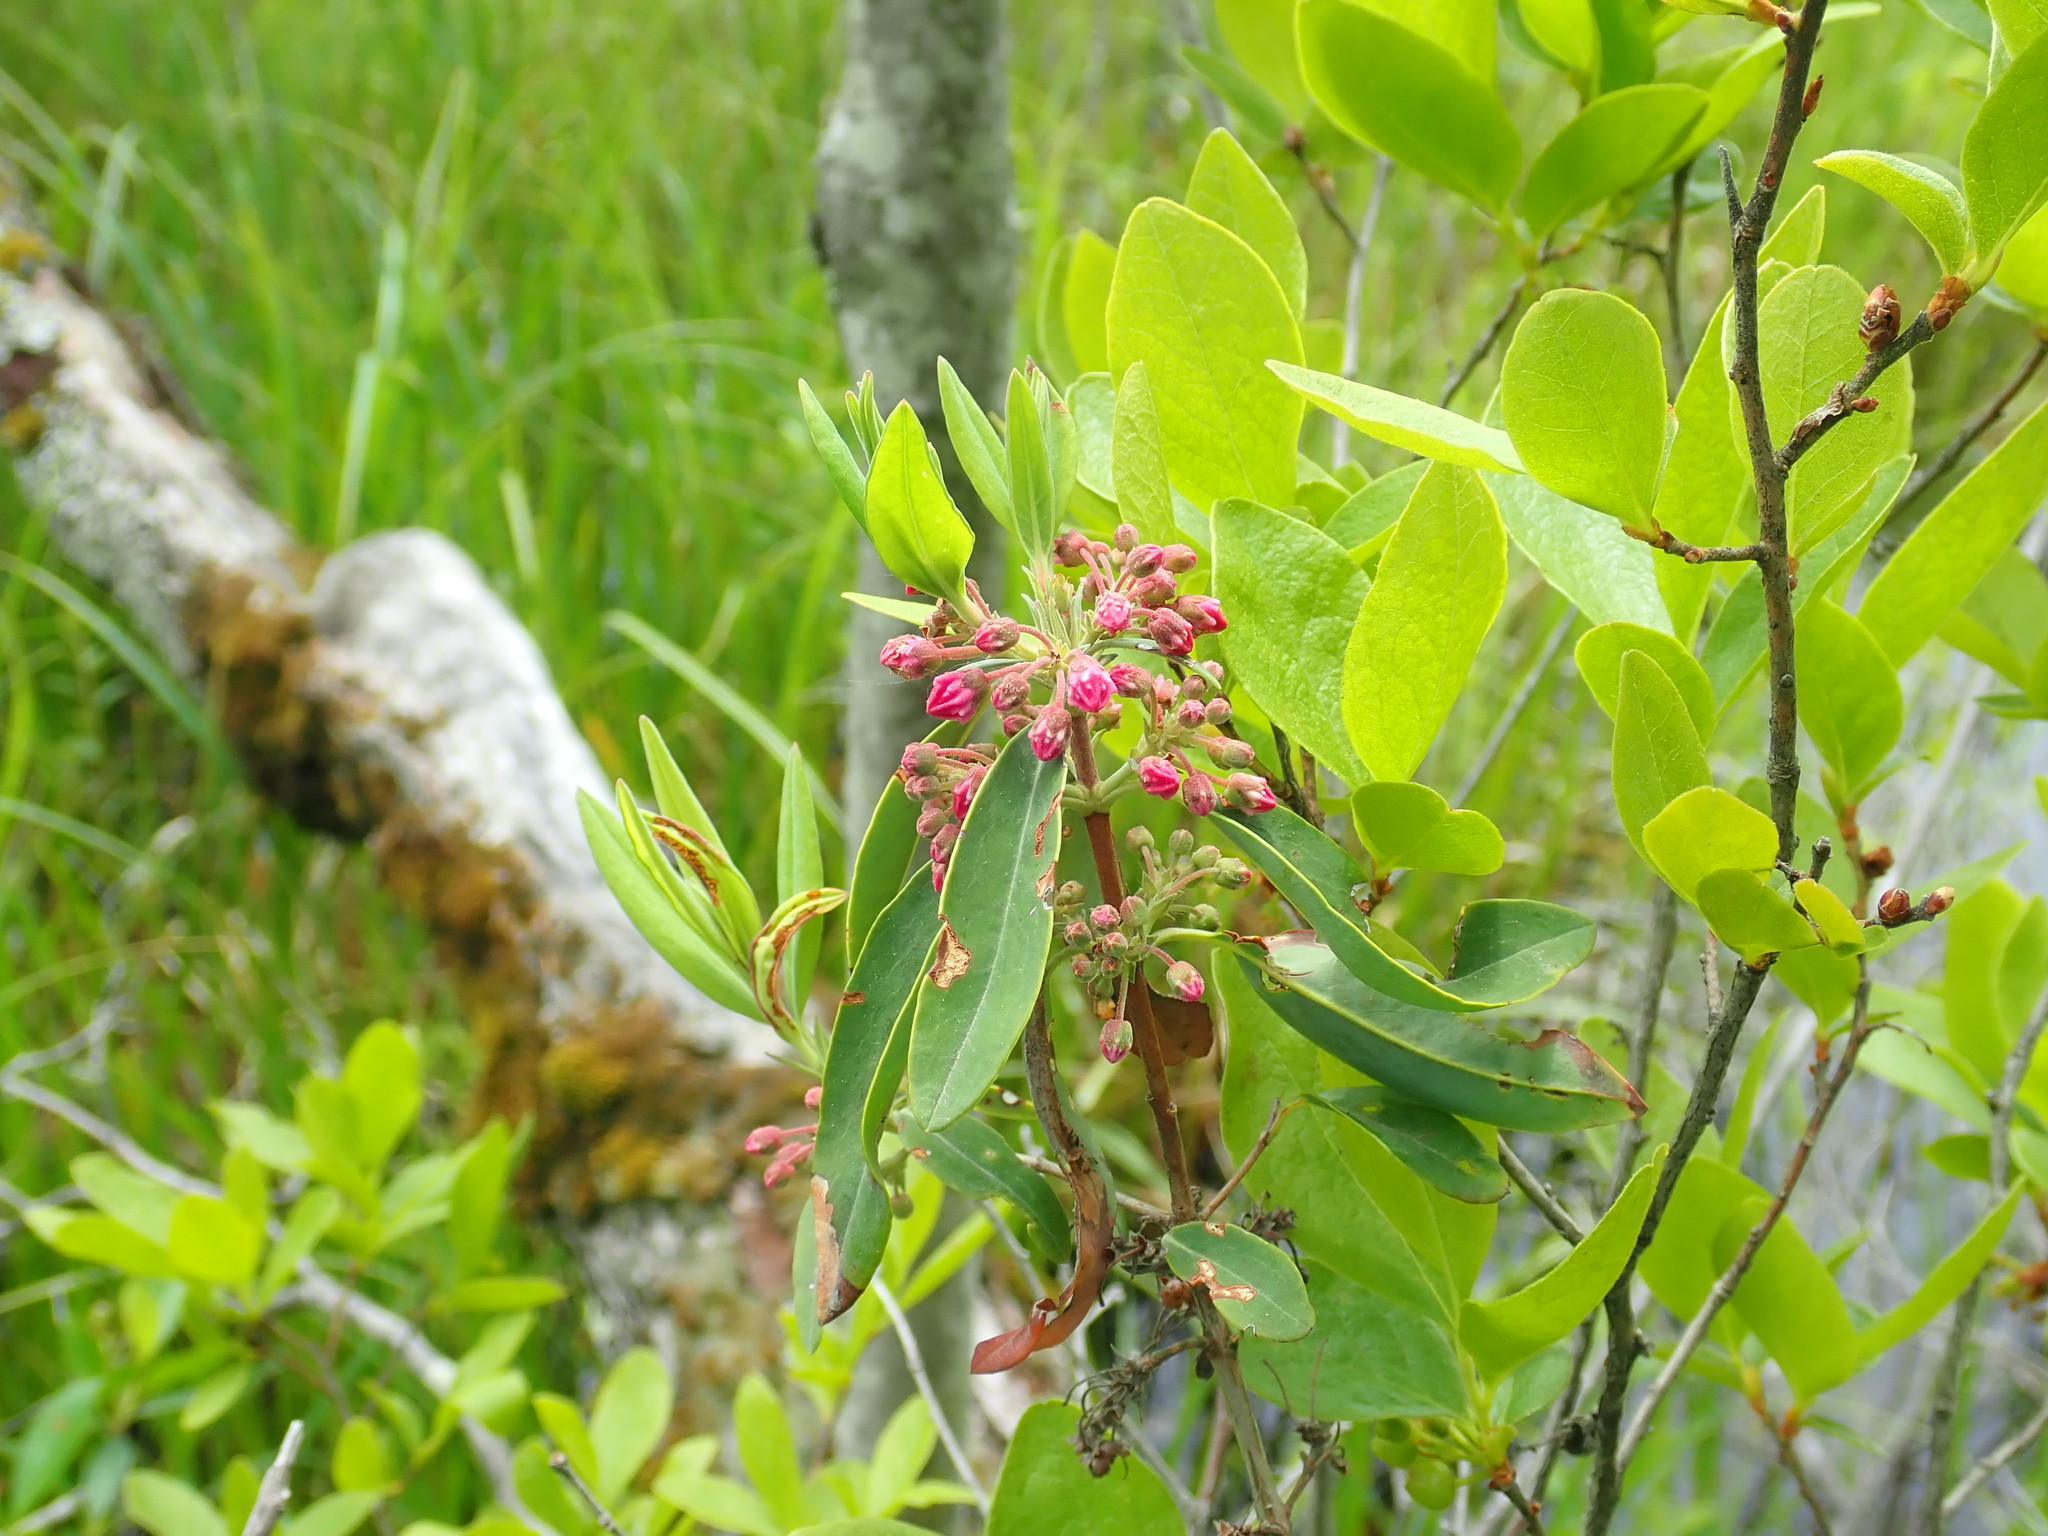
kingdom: Plantae
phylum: Tracheophyta
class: Magnoliopsida
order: Ericales
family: Ericaceae
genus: Kalmia
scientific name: Kalmia angustifolia
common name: Sheep-laurel
